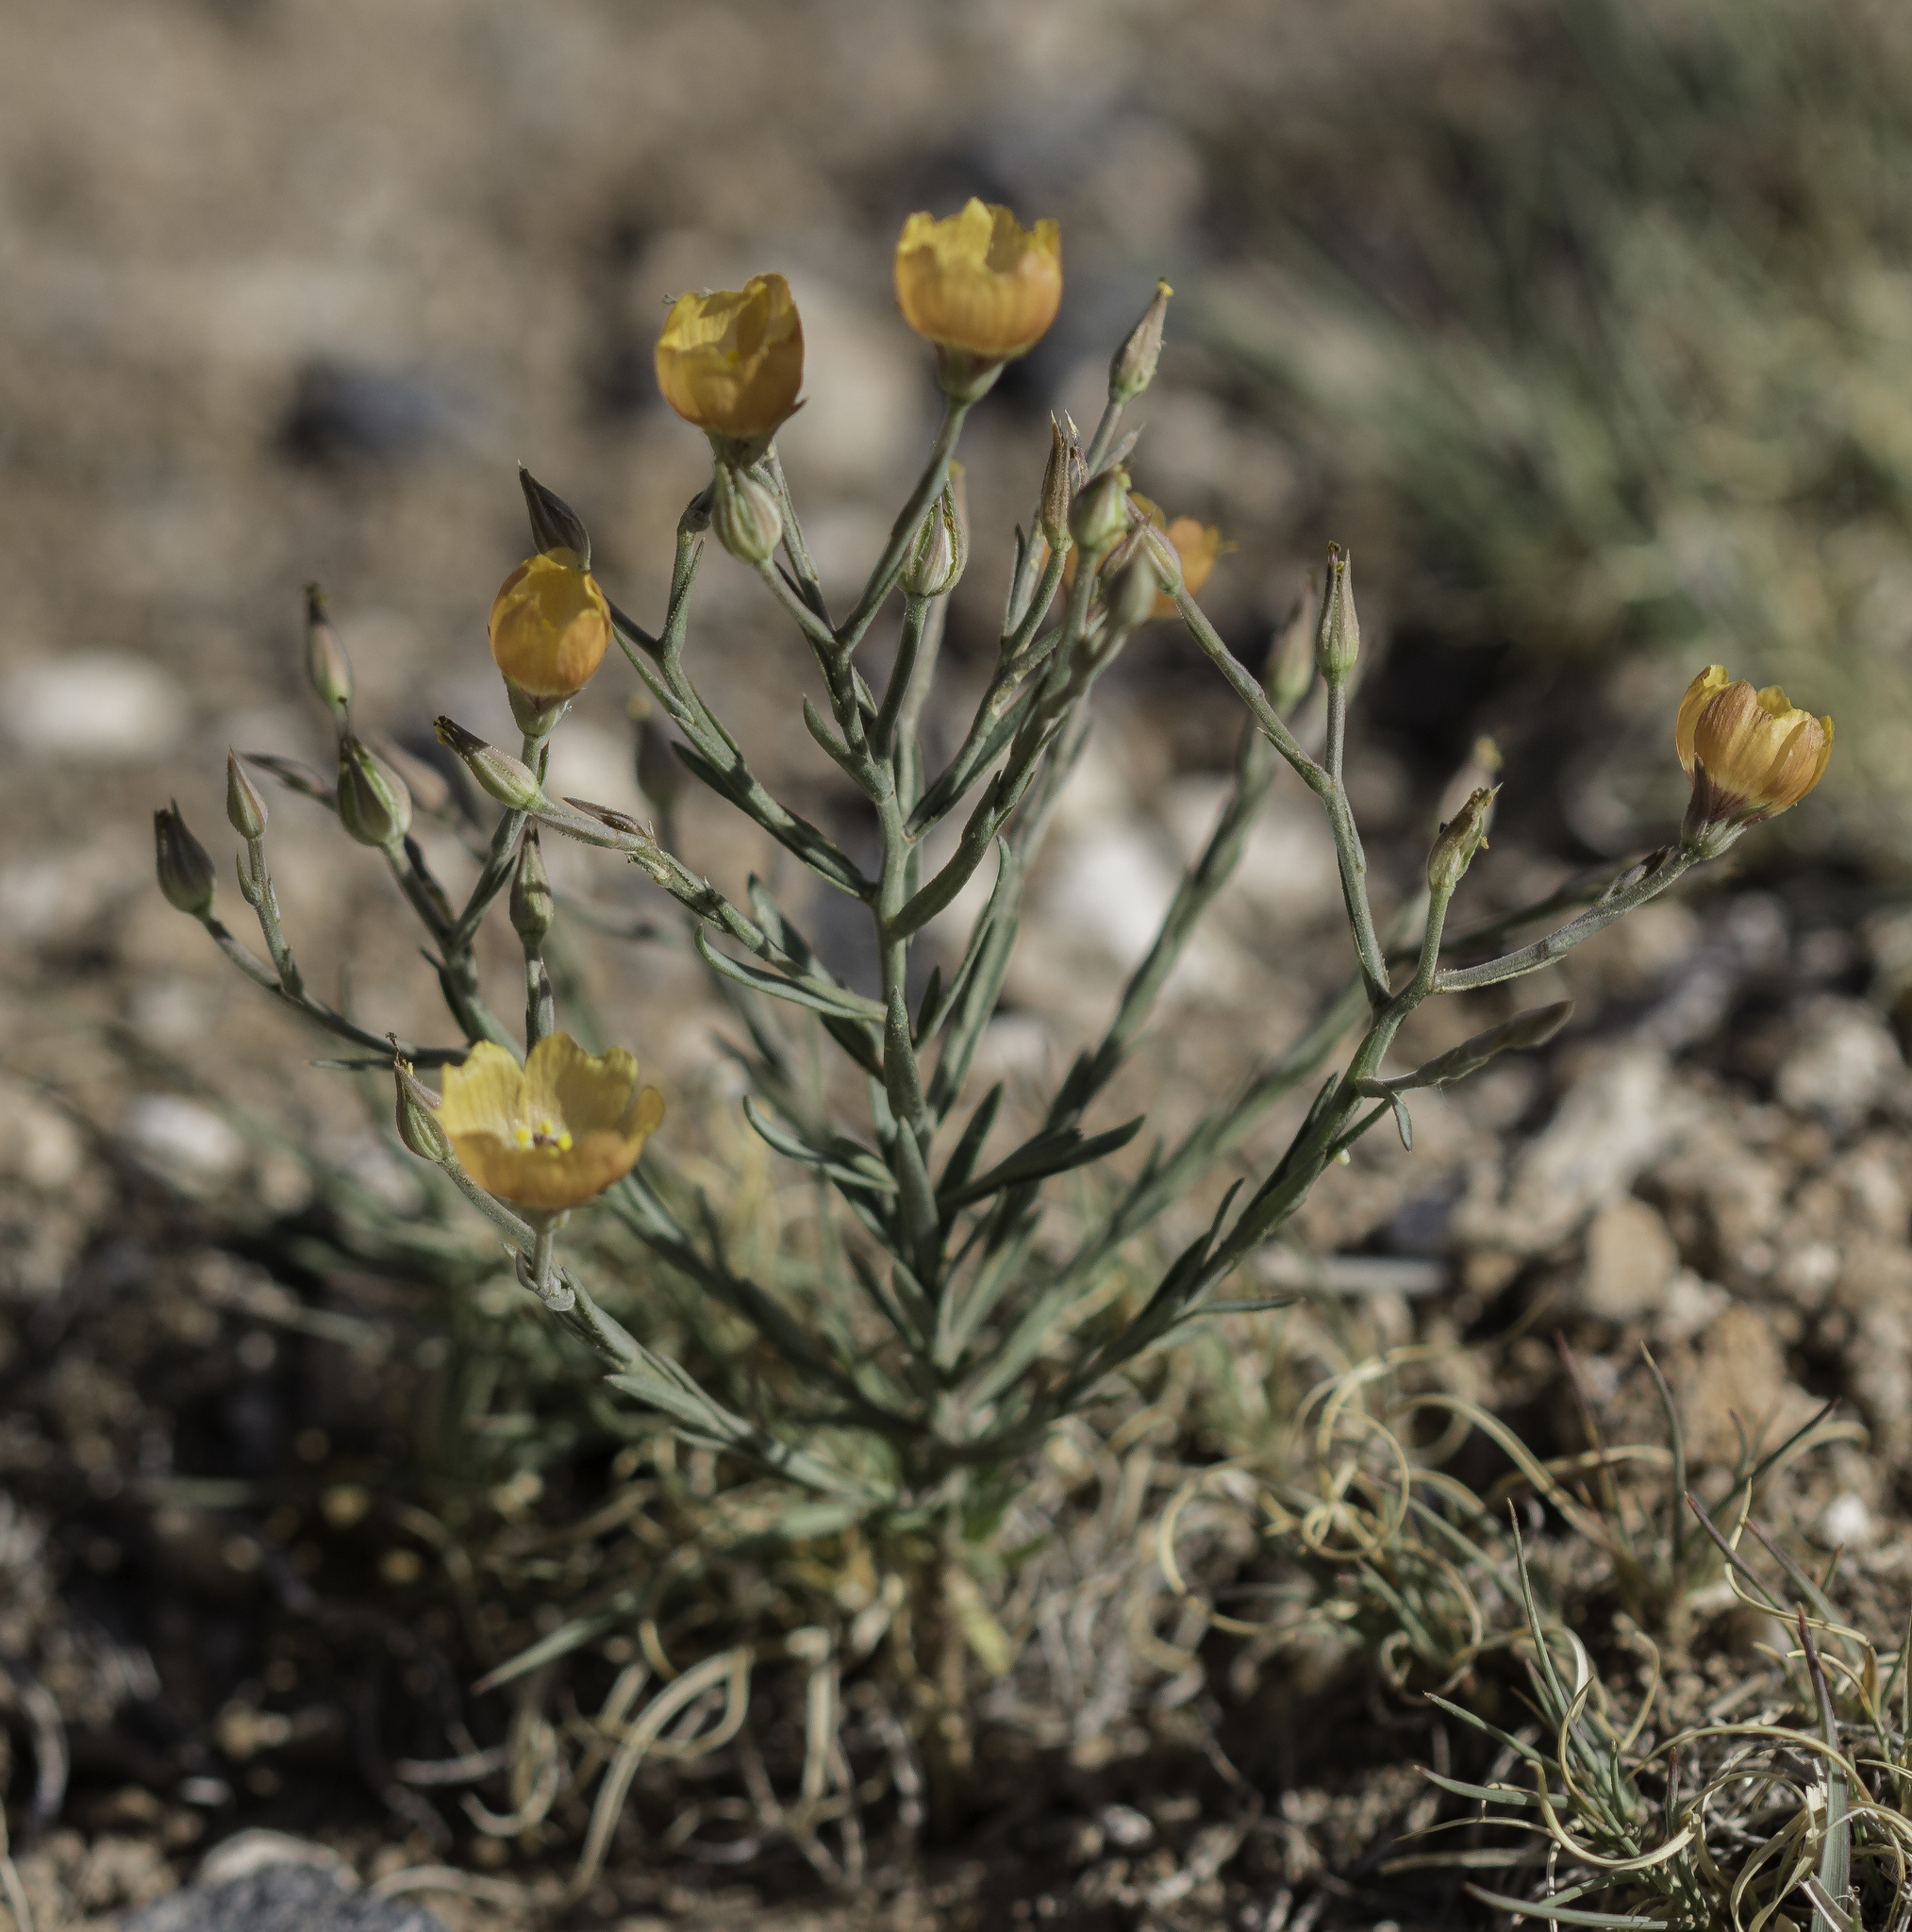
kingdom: Plantae
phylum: Tracheophyta
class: Magnoliopsida
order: Malpighiales
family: Linaceae
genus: Linum
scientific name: Linum puberulum
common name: Plains flax
